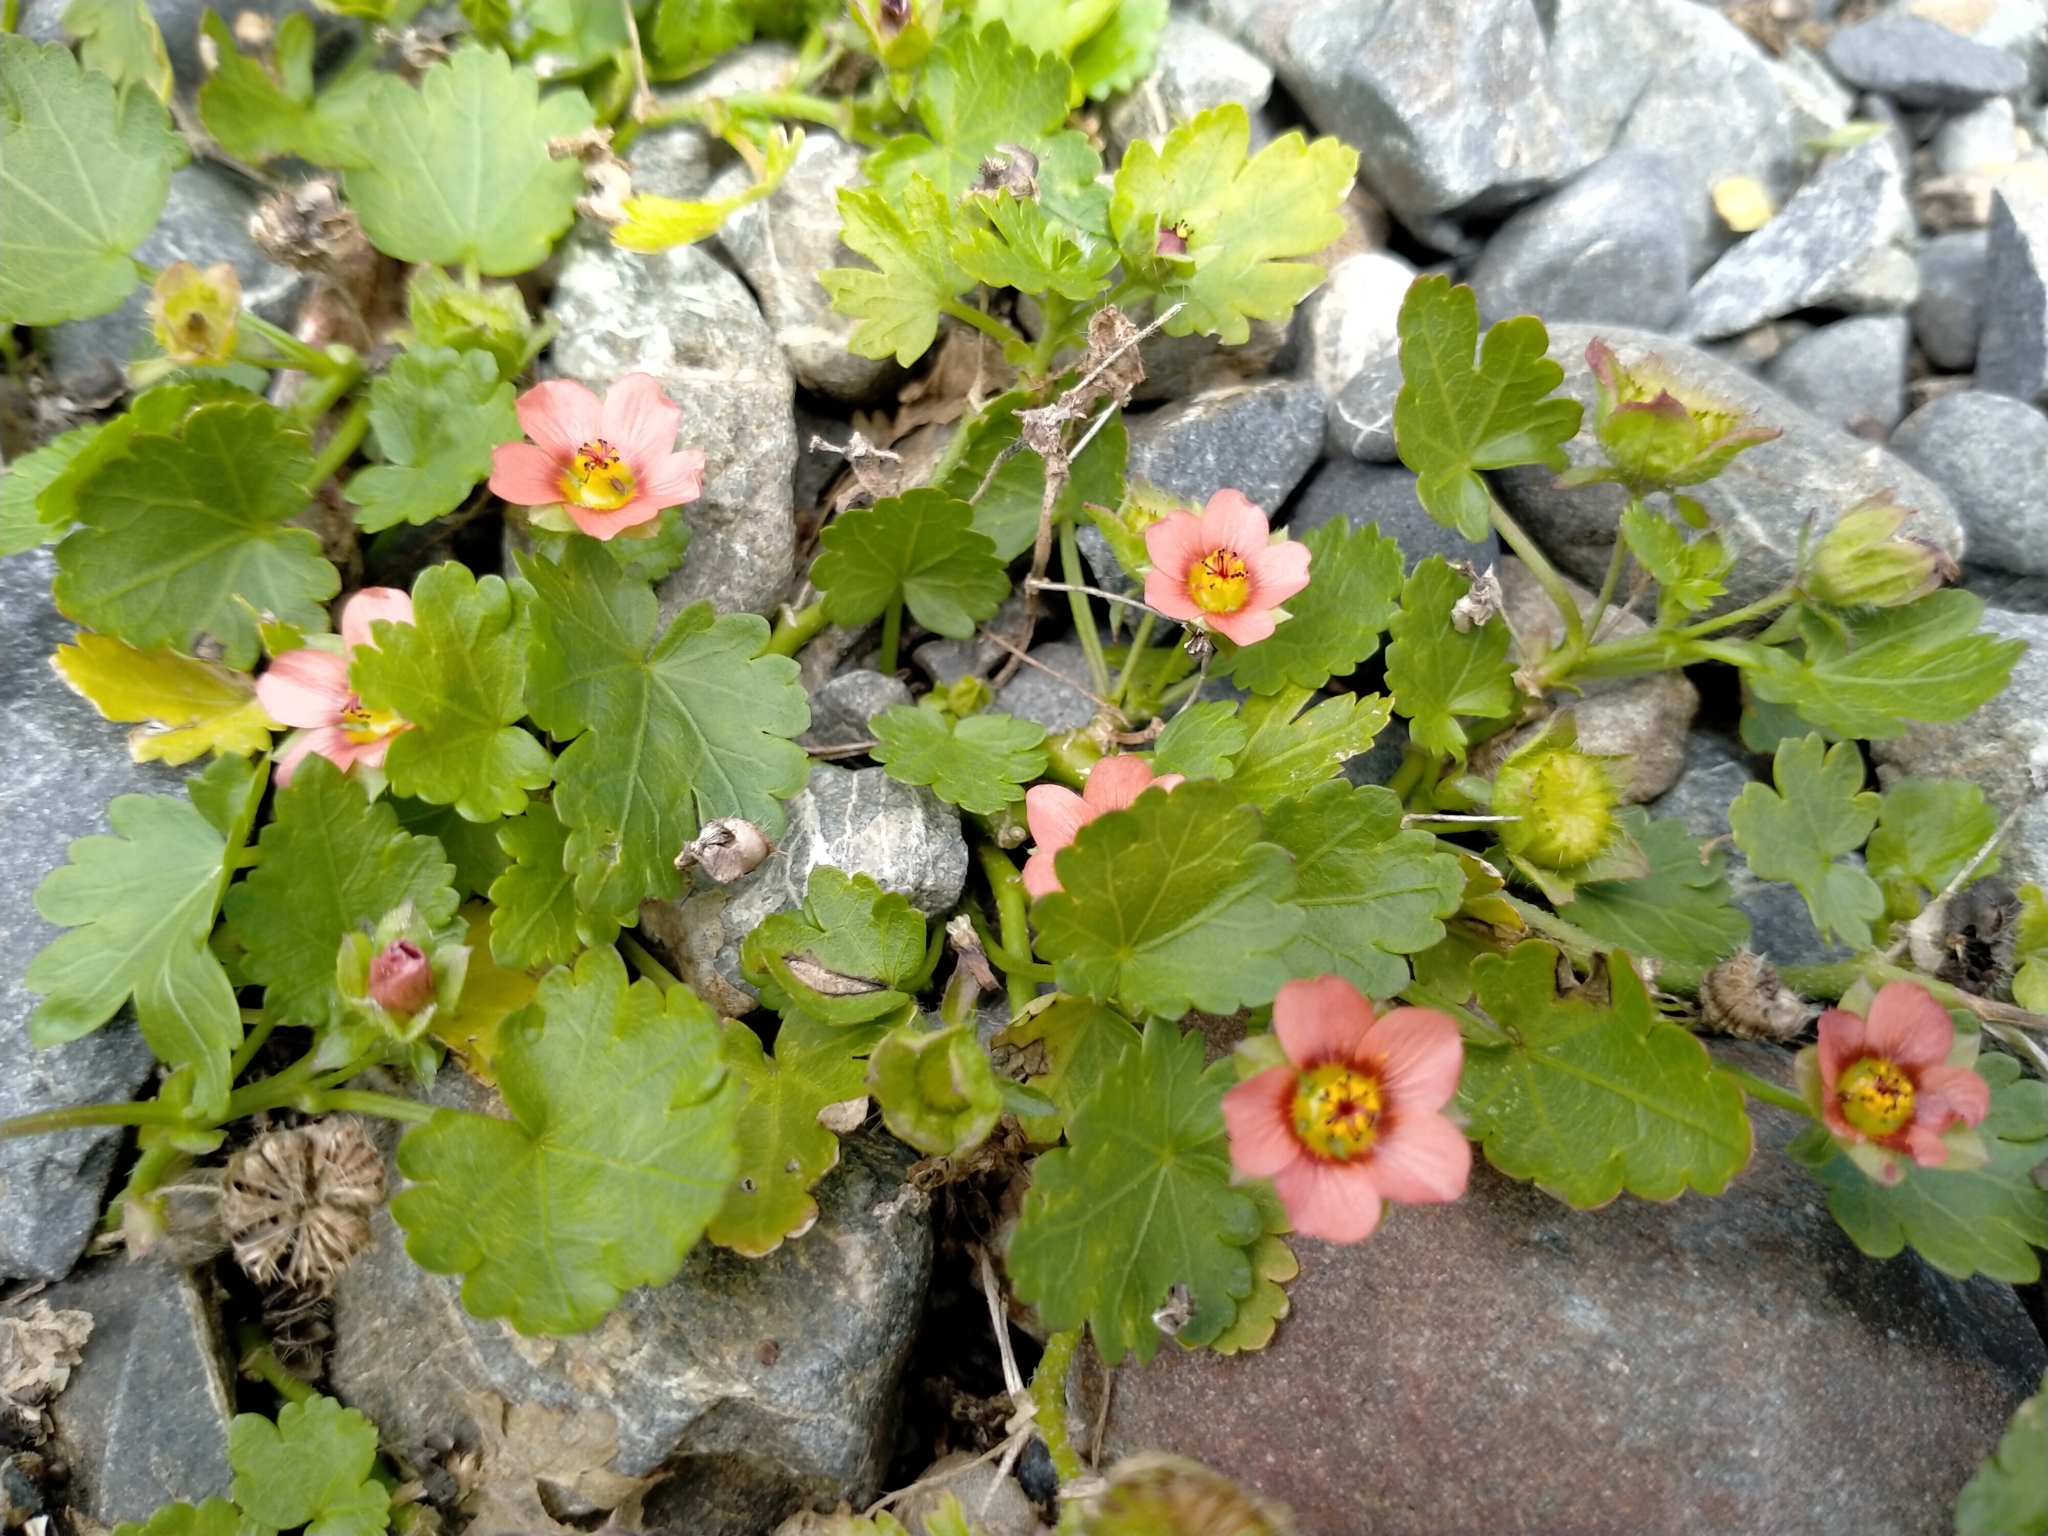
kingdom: Plantae
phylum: Tracheophyta
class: Magnoliopsida
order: Malvales
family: Malvaceae
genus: Modiola
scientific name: Modiola caroliniana
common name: Carolina bristlemallow
